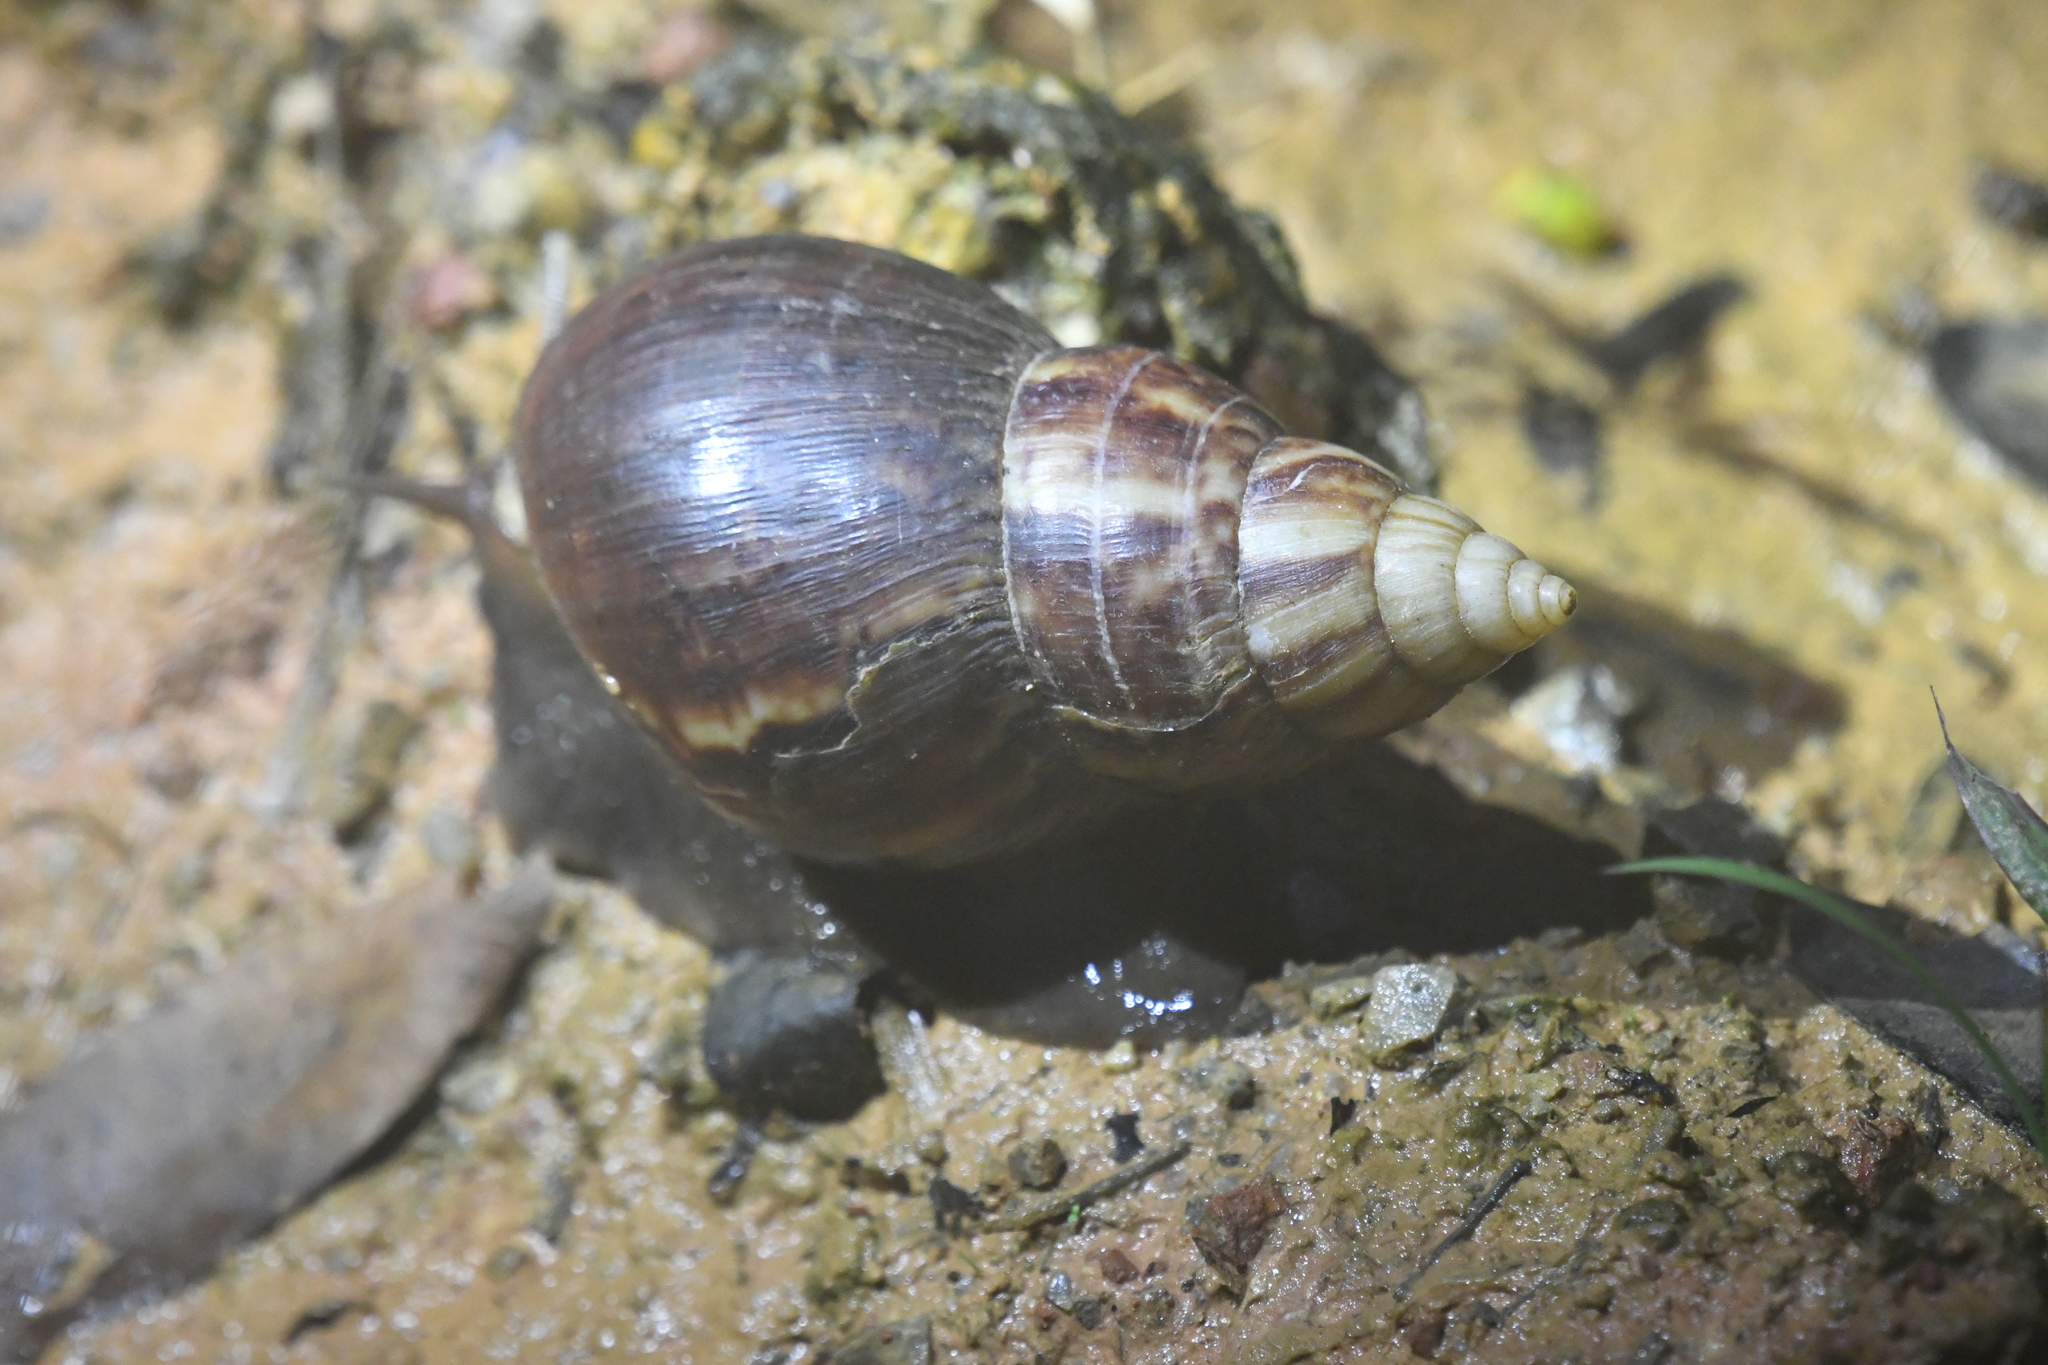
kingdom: Animalia
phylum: Mollusca
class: Gastropoda
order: Stylommatophora
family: Achatinidae
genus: Lissachatina
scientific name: Lissachatina fulica
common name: Giant african snail
